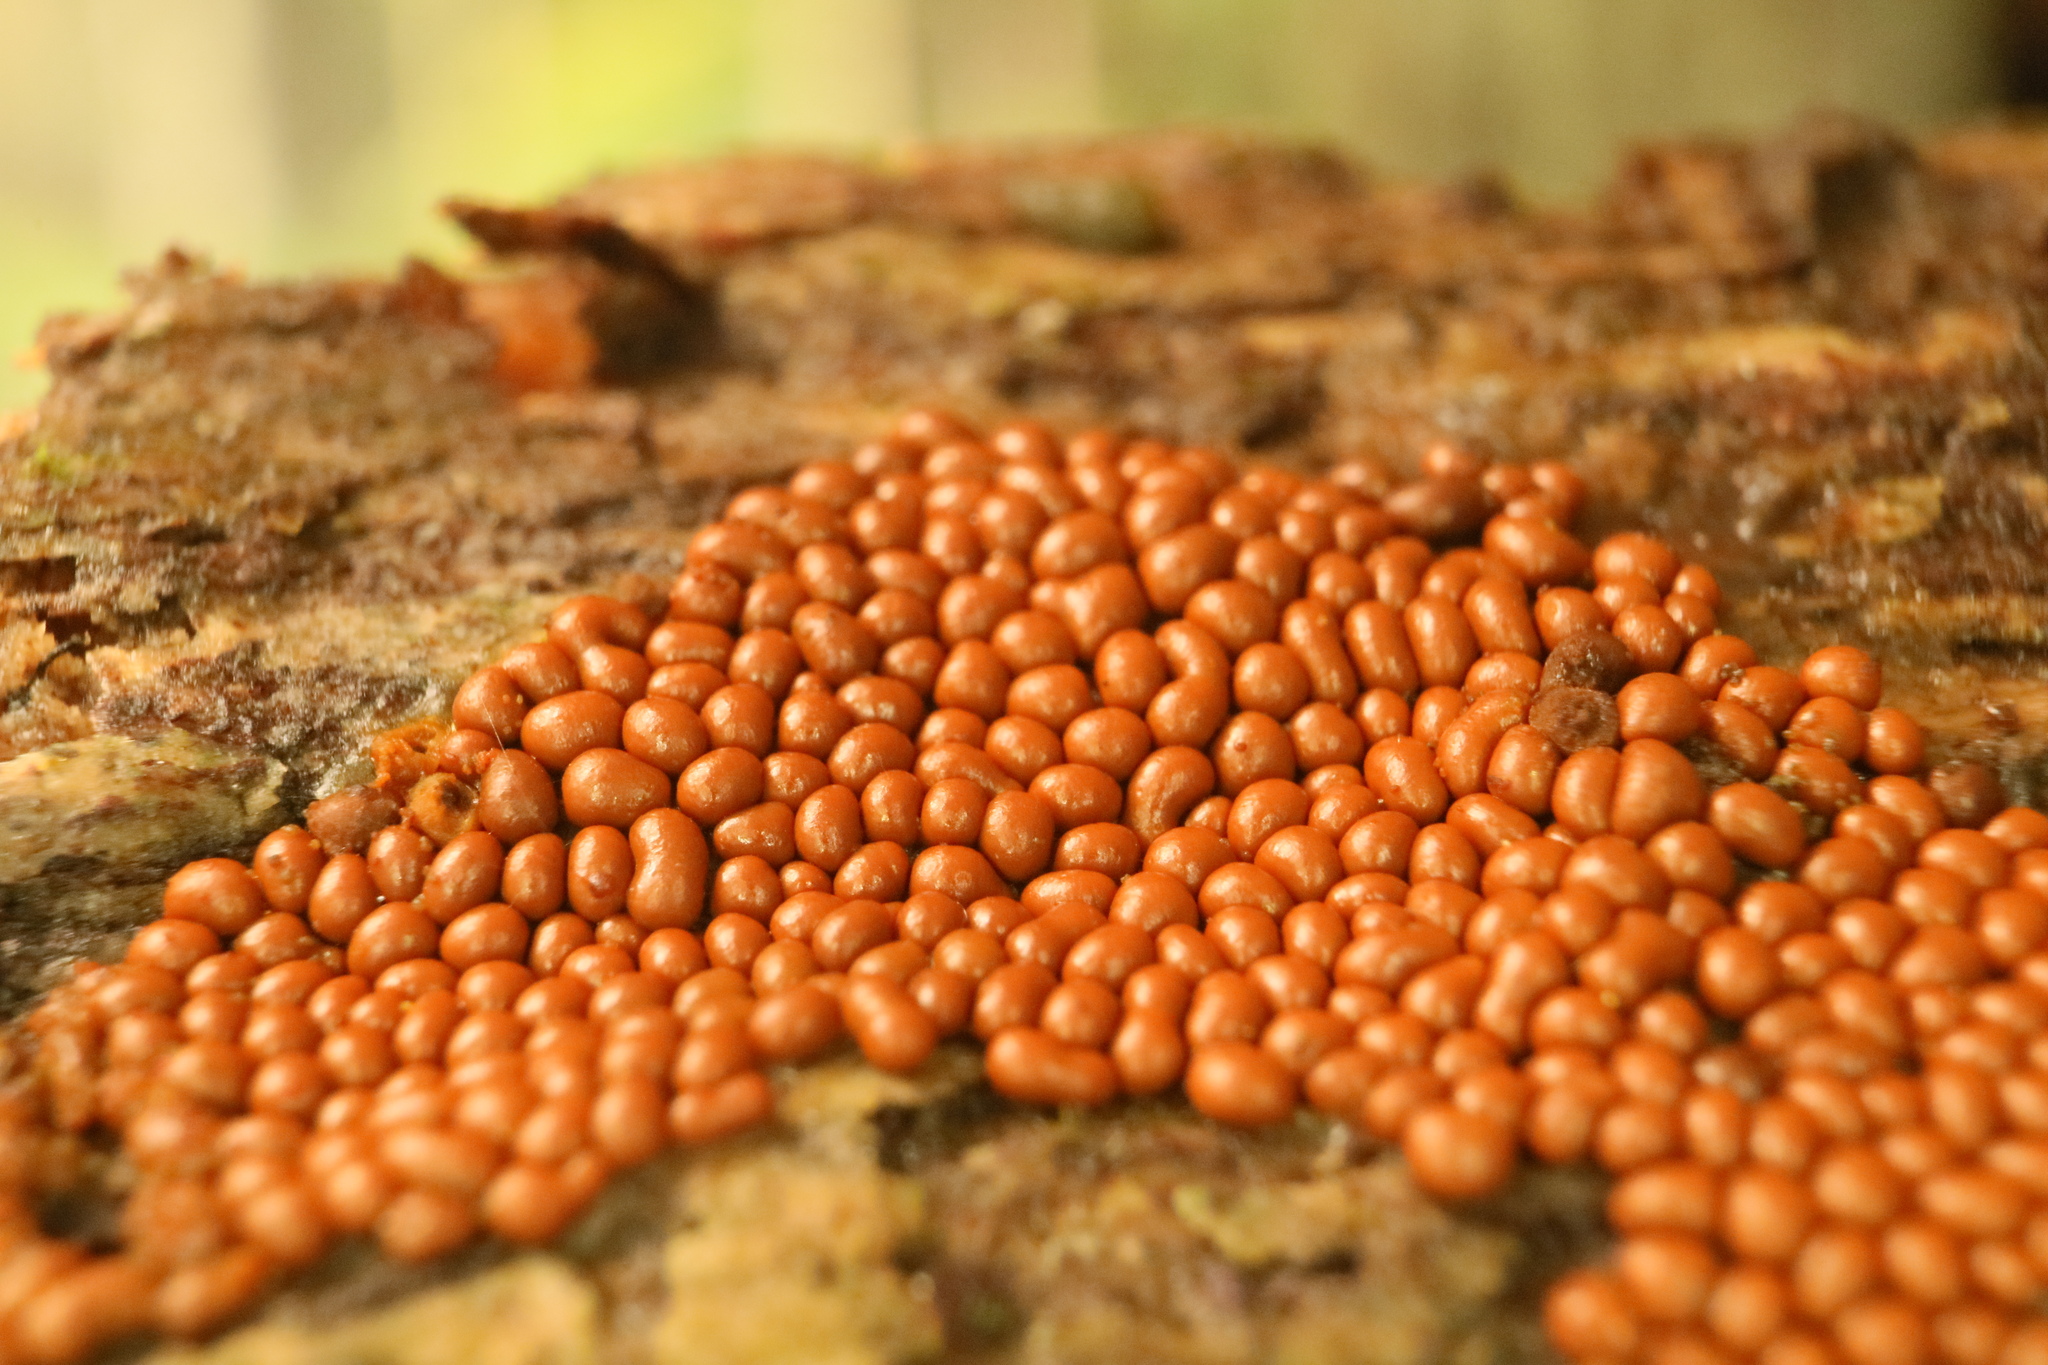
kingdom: Protozoa
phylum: Mycetozoa
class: Myxomycetes
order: Trichiales
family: Trichiaceae
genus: Oligonema
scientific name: Oligonema affine
